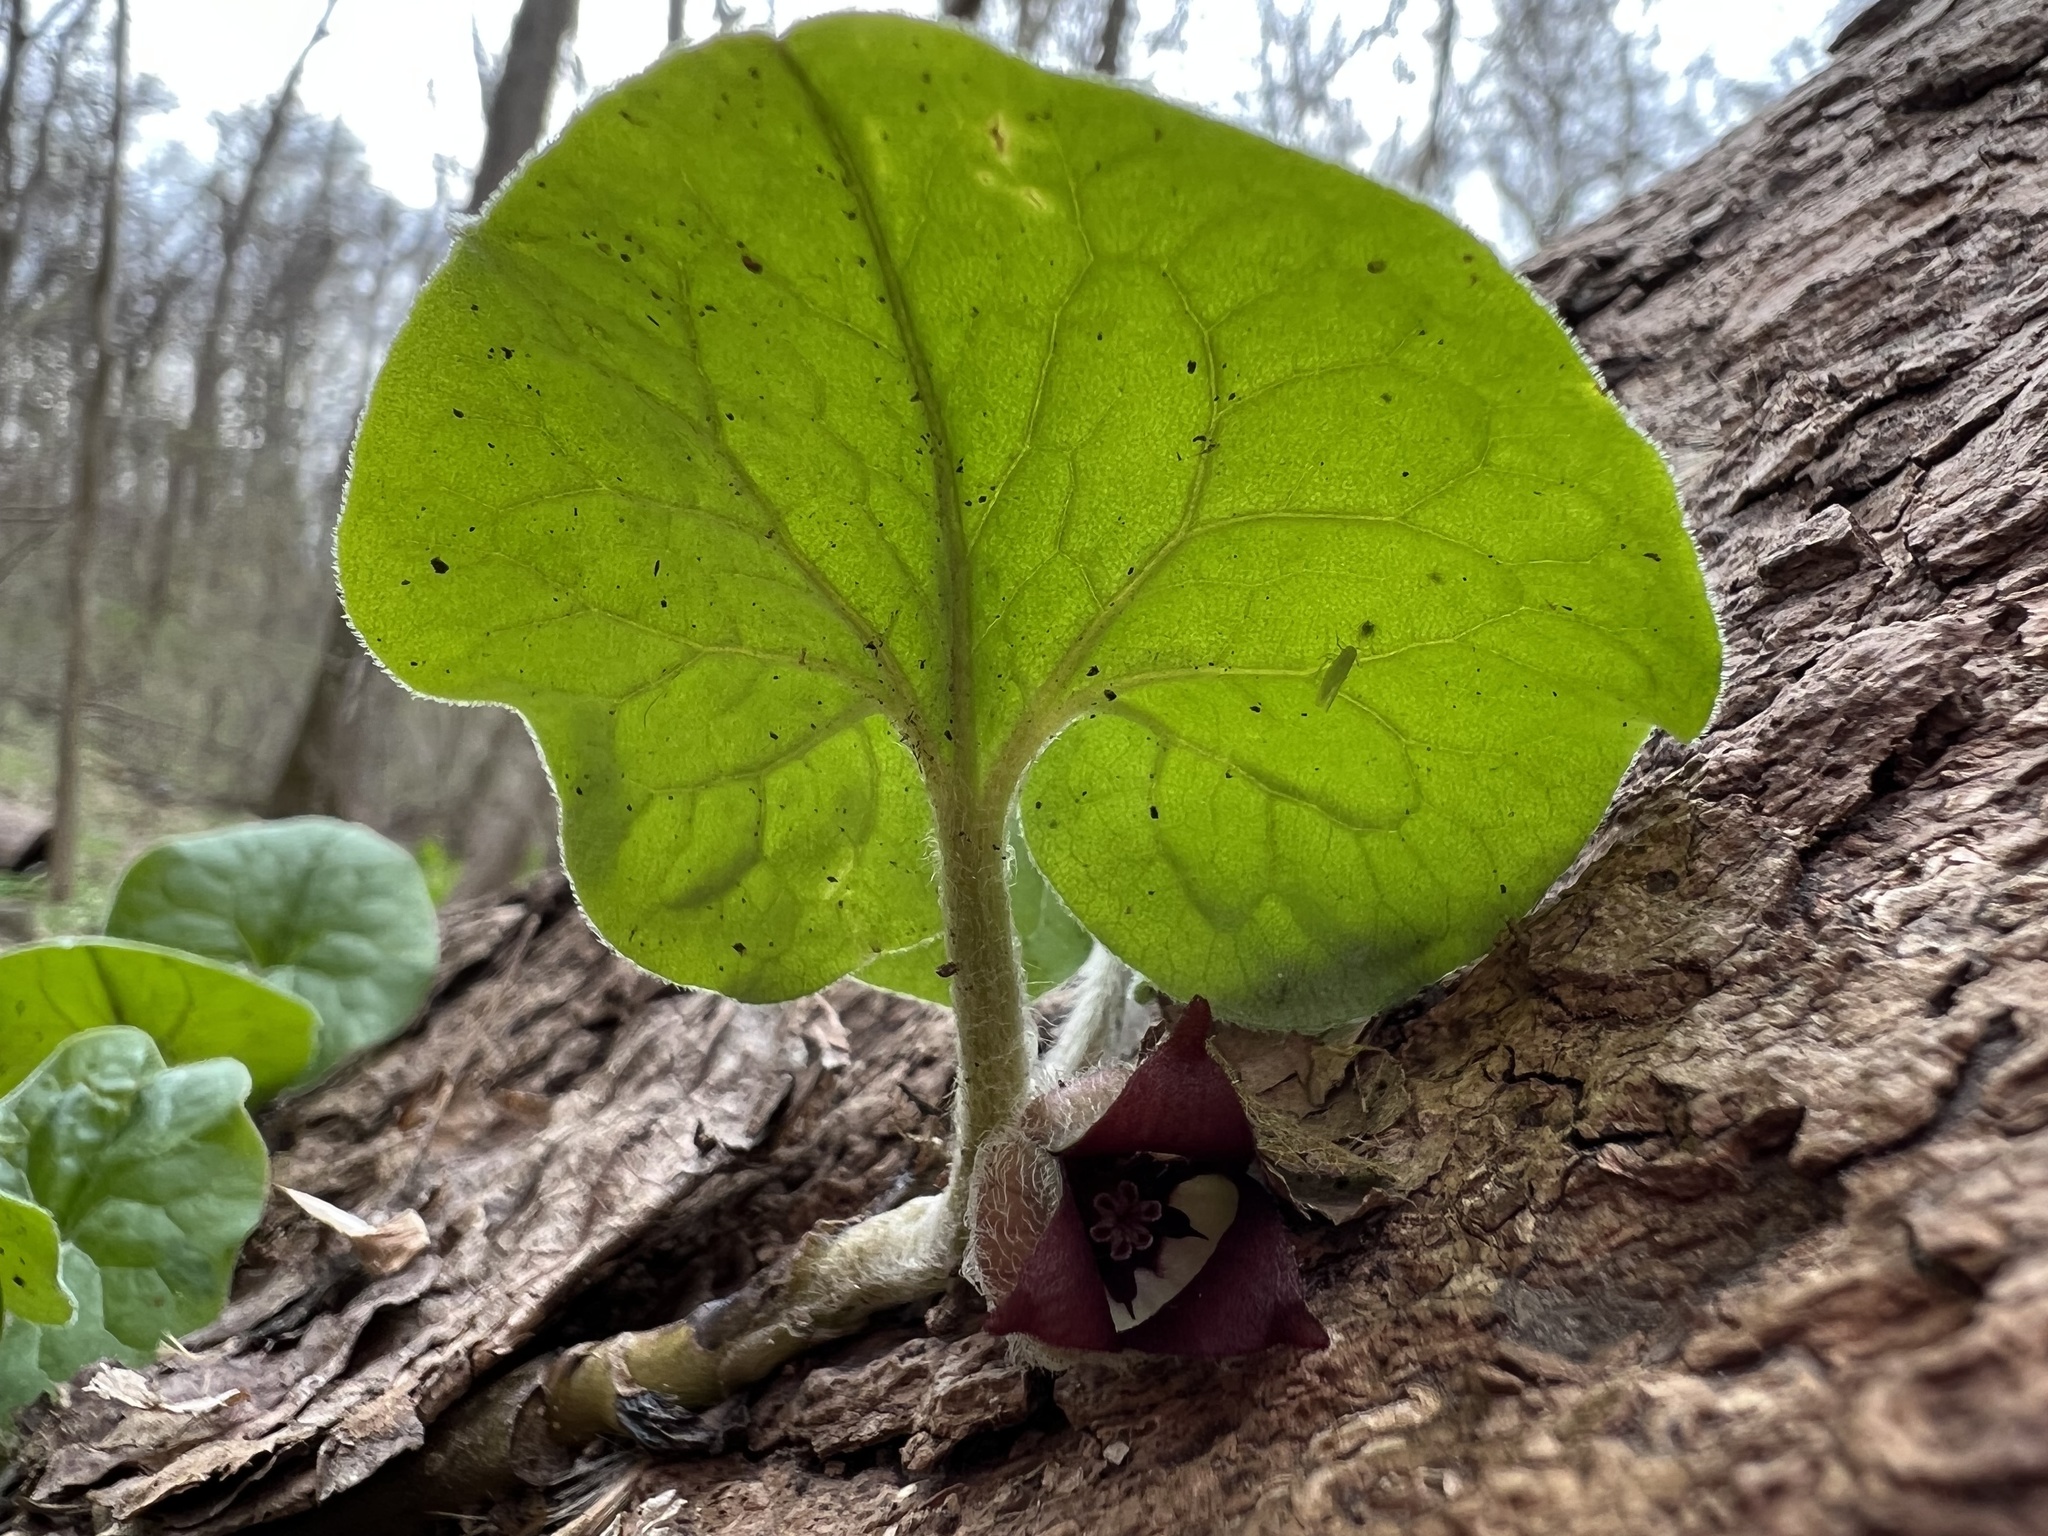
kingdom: Plantae
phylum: Tracheophyta
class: Magnoliopsida
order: Piperales
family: Aristolochiaceae
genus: Asarum
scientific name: Asarum canadense
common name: Wild ginger
